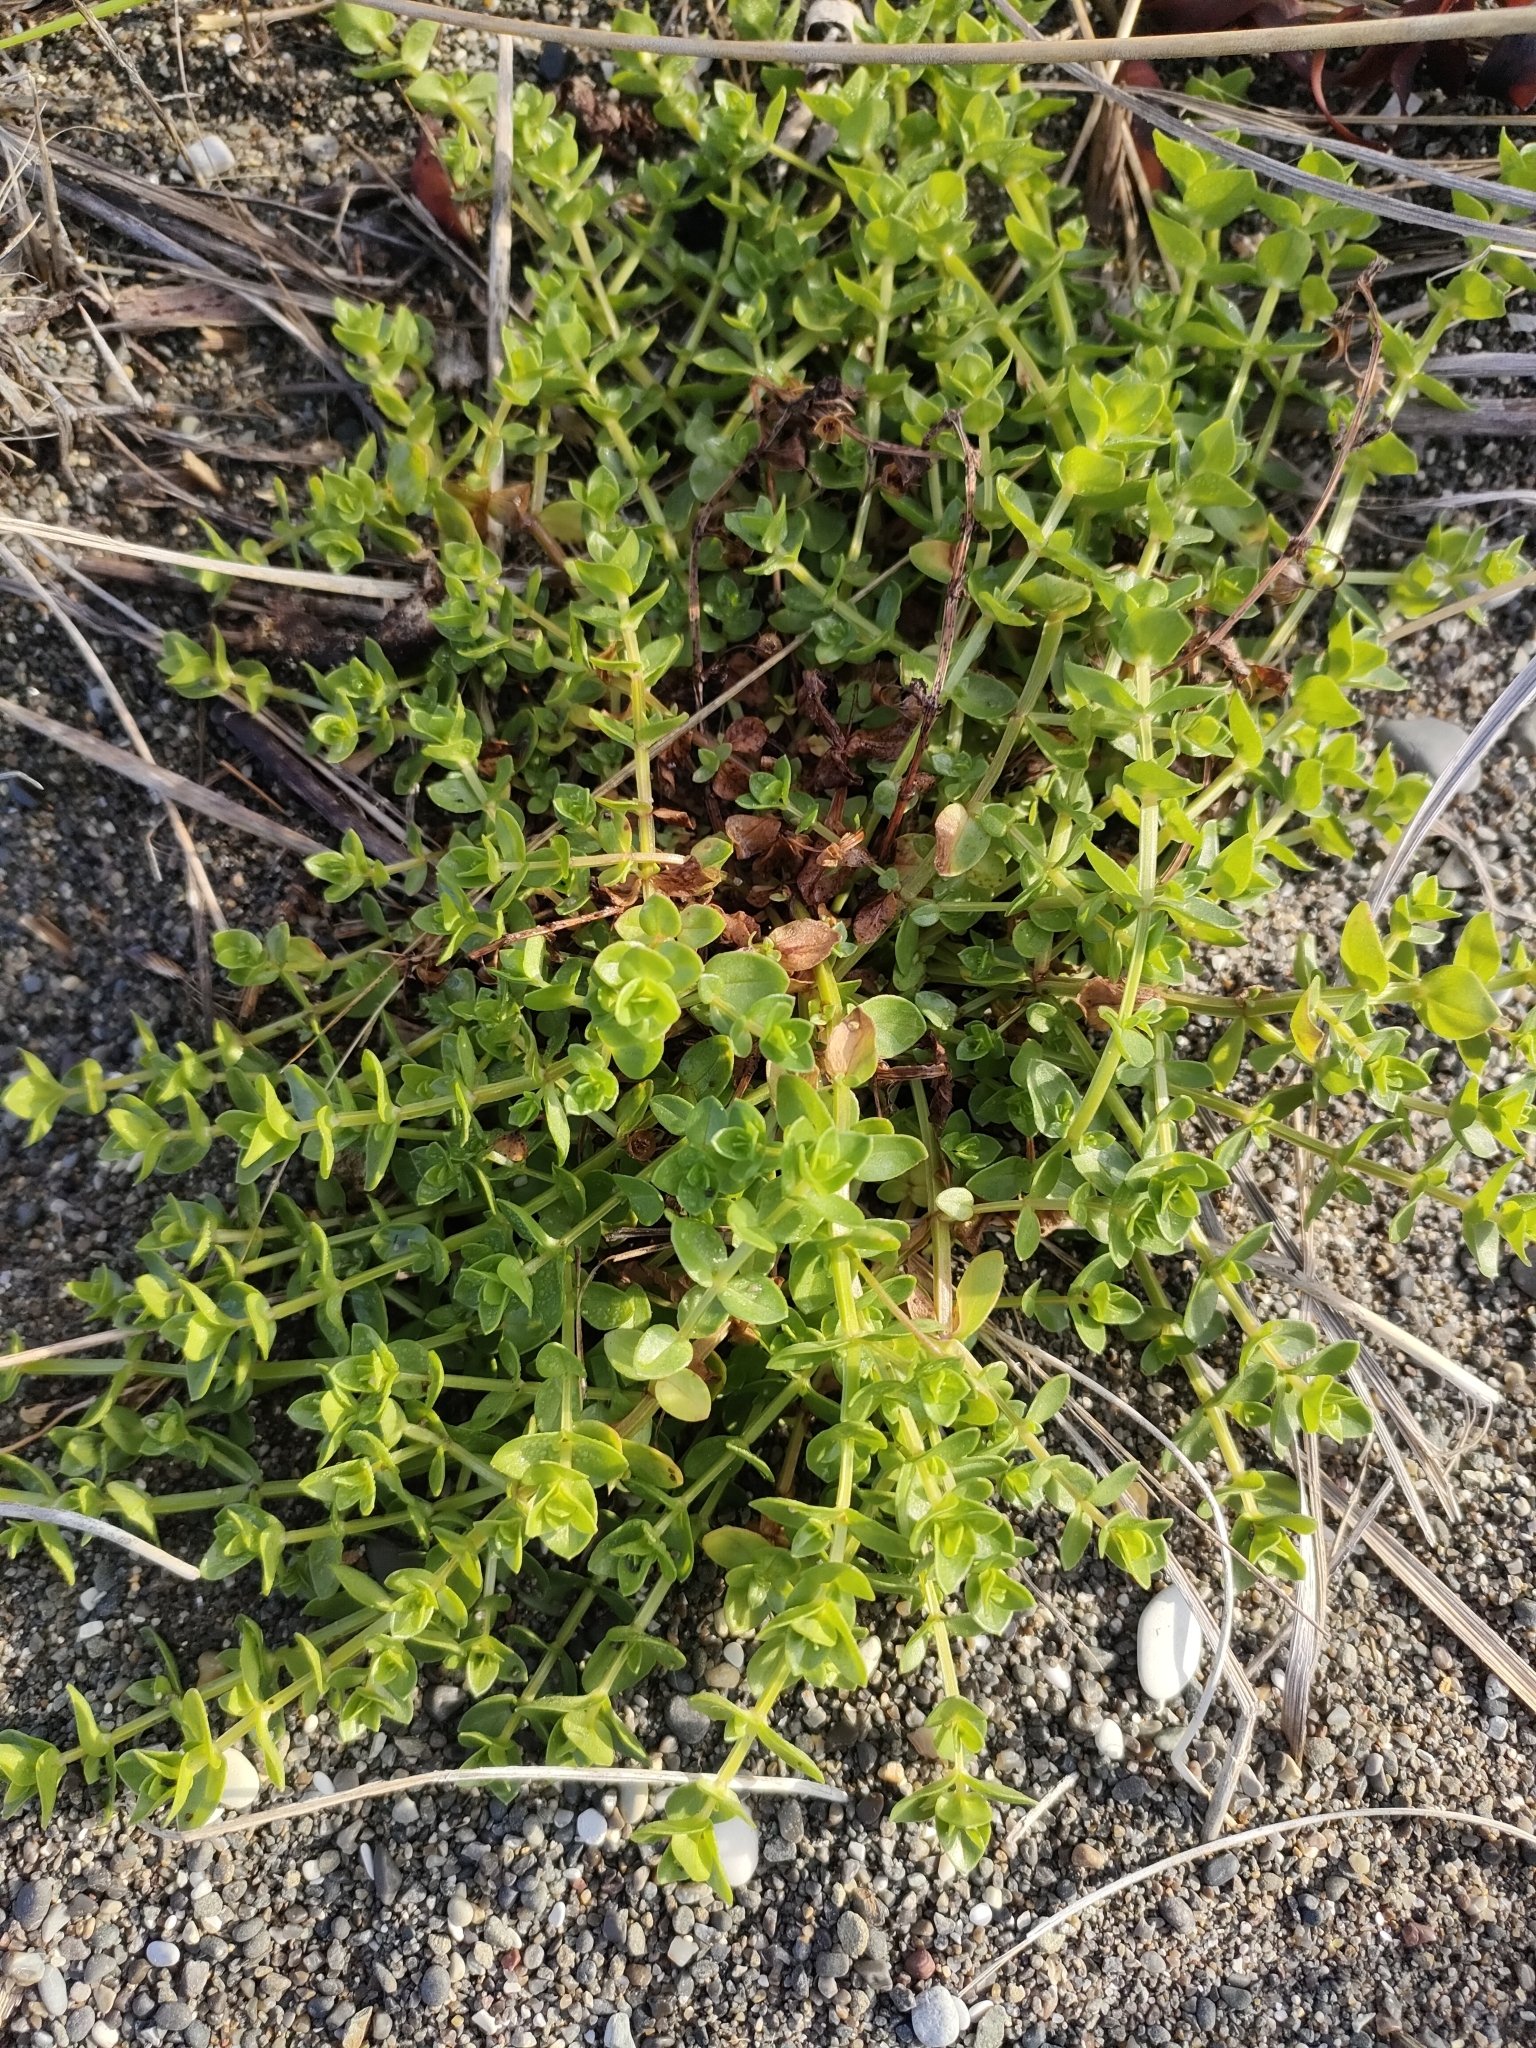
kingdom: Plantae
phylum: Tracheophyta
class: Magnoliopsida
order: Ericales
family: Primulaceae
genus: Lysimachia
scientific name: Lysimachia arvensis
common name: Scarlet pimpernel
